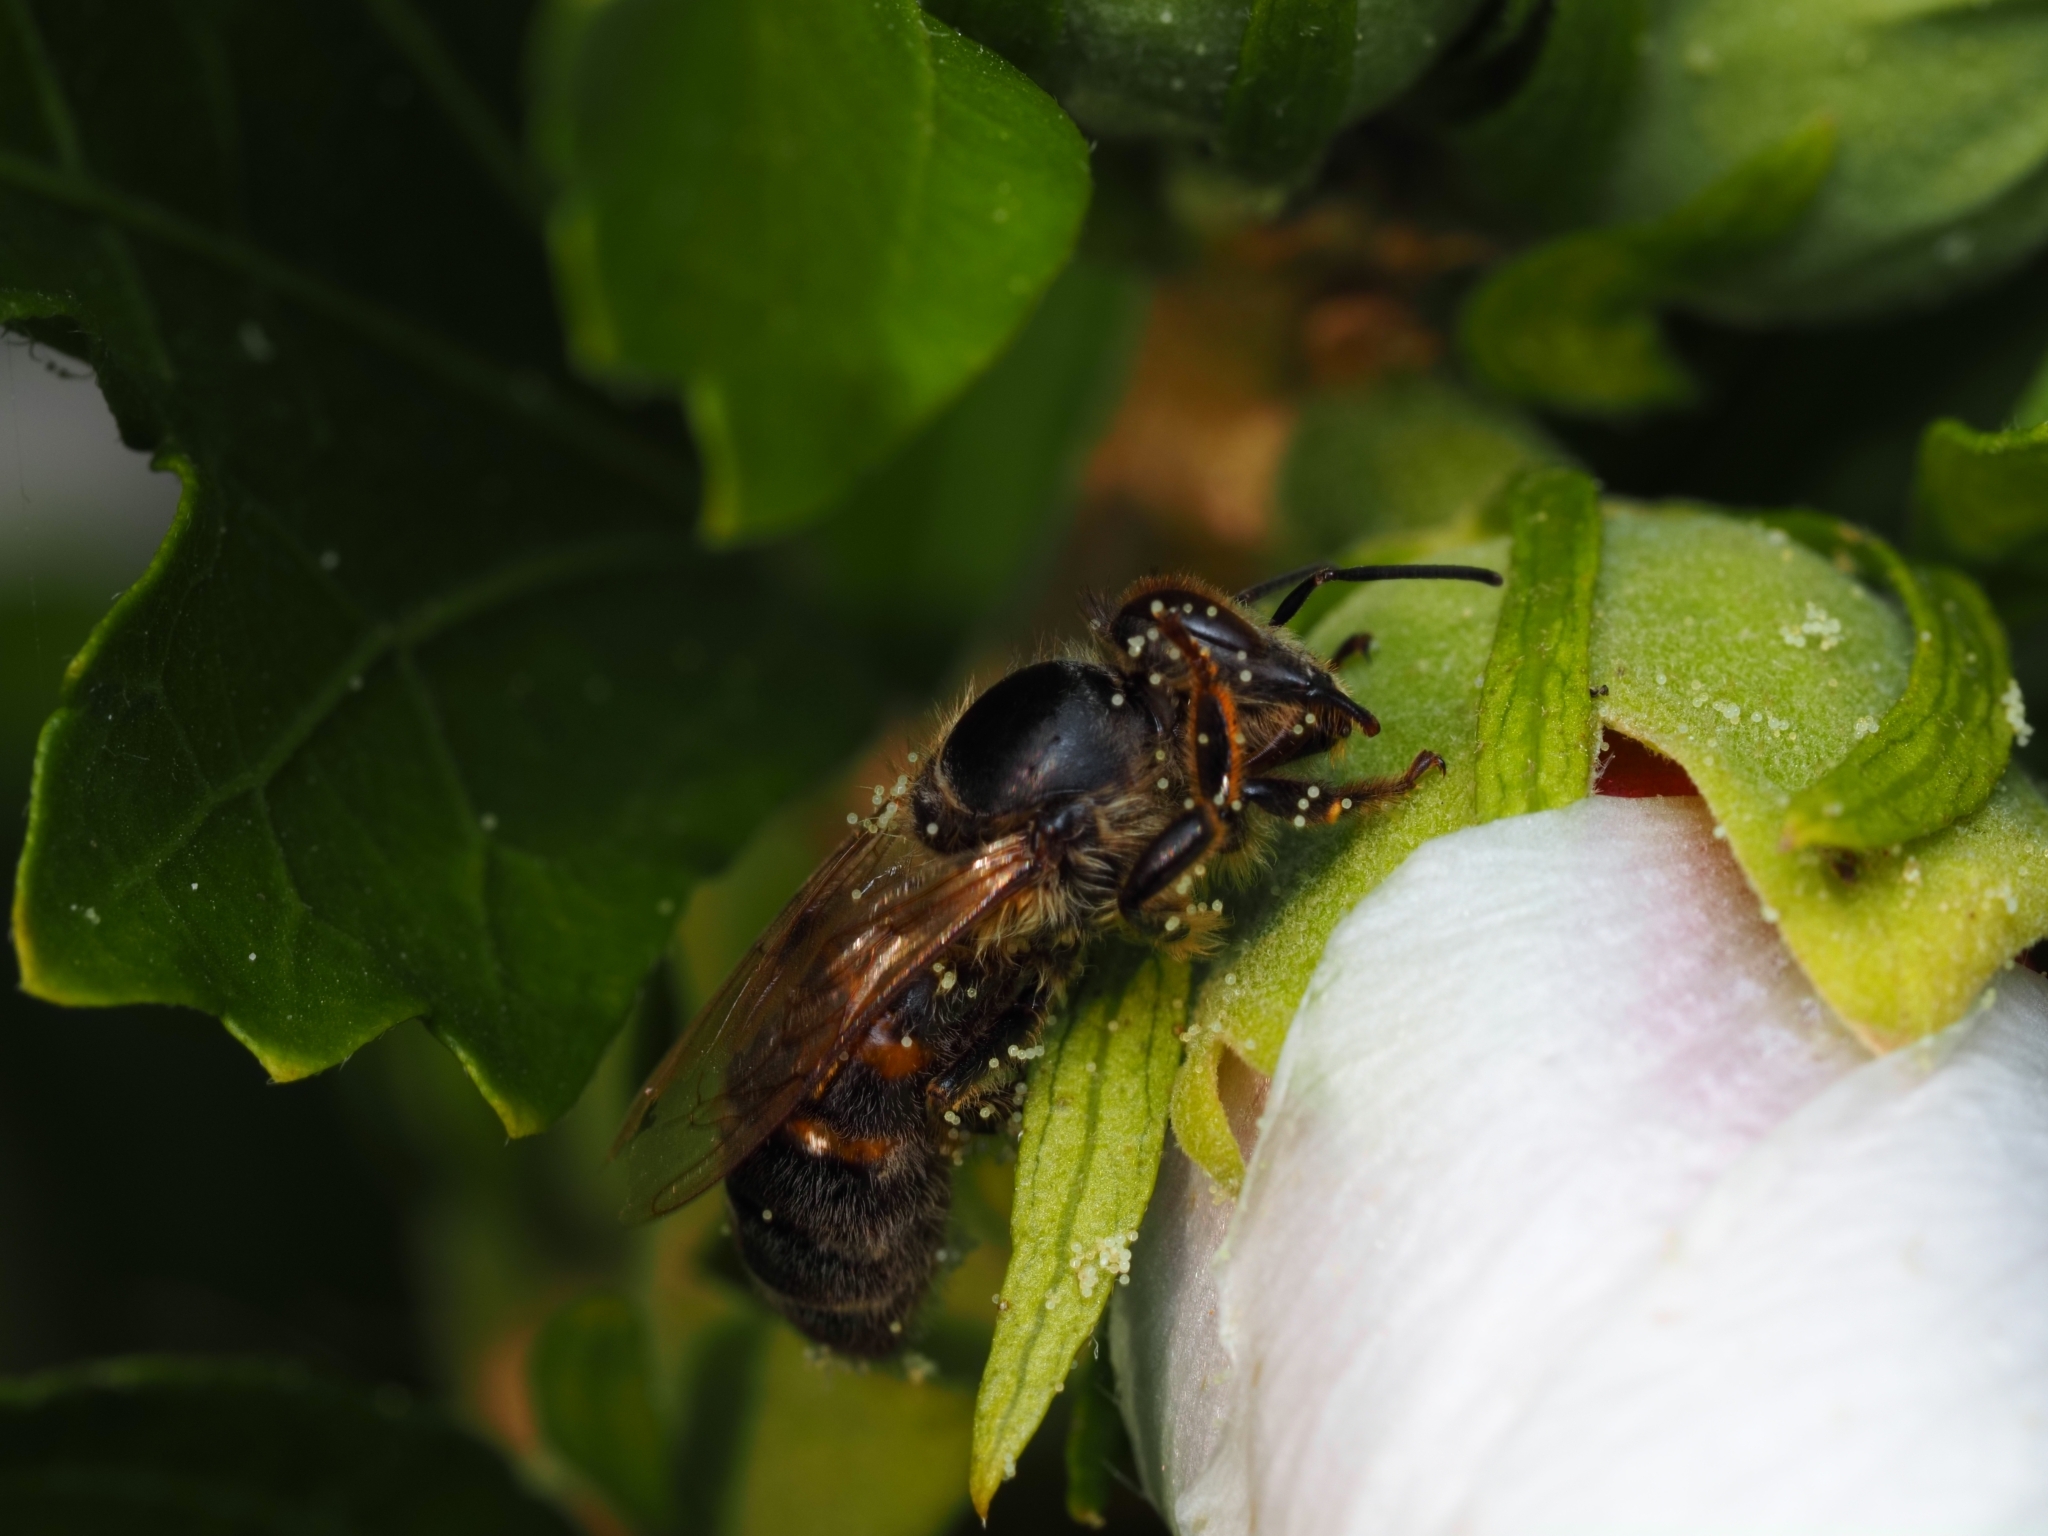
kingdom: Animalia
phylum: Arthropoda
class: Insecta
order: Hymenoptera
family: Apidae
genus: Apis
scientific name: Apis mellifera
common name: Honey bee
